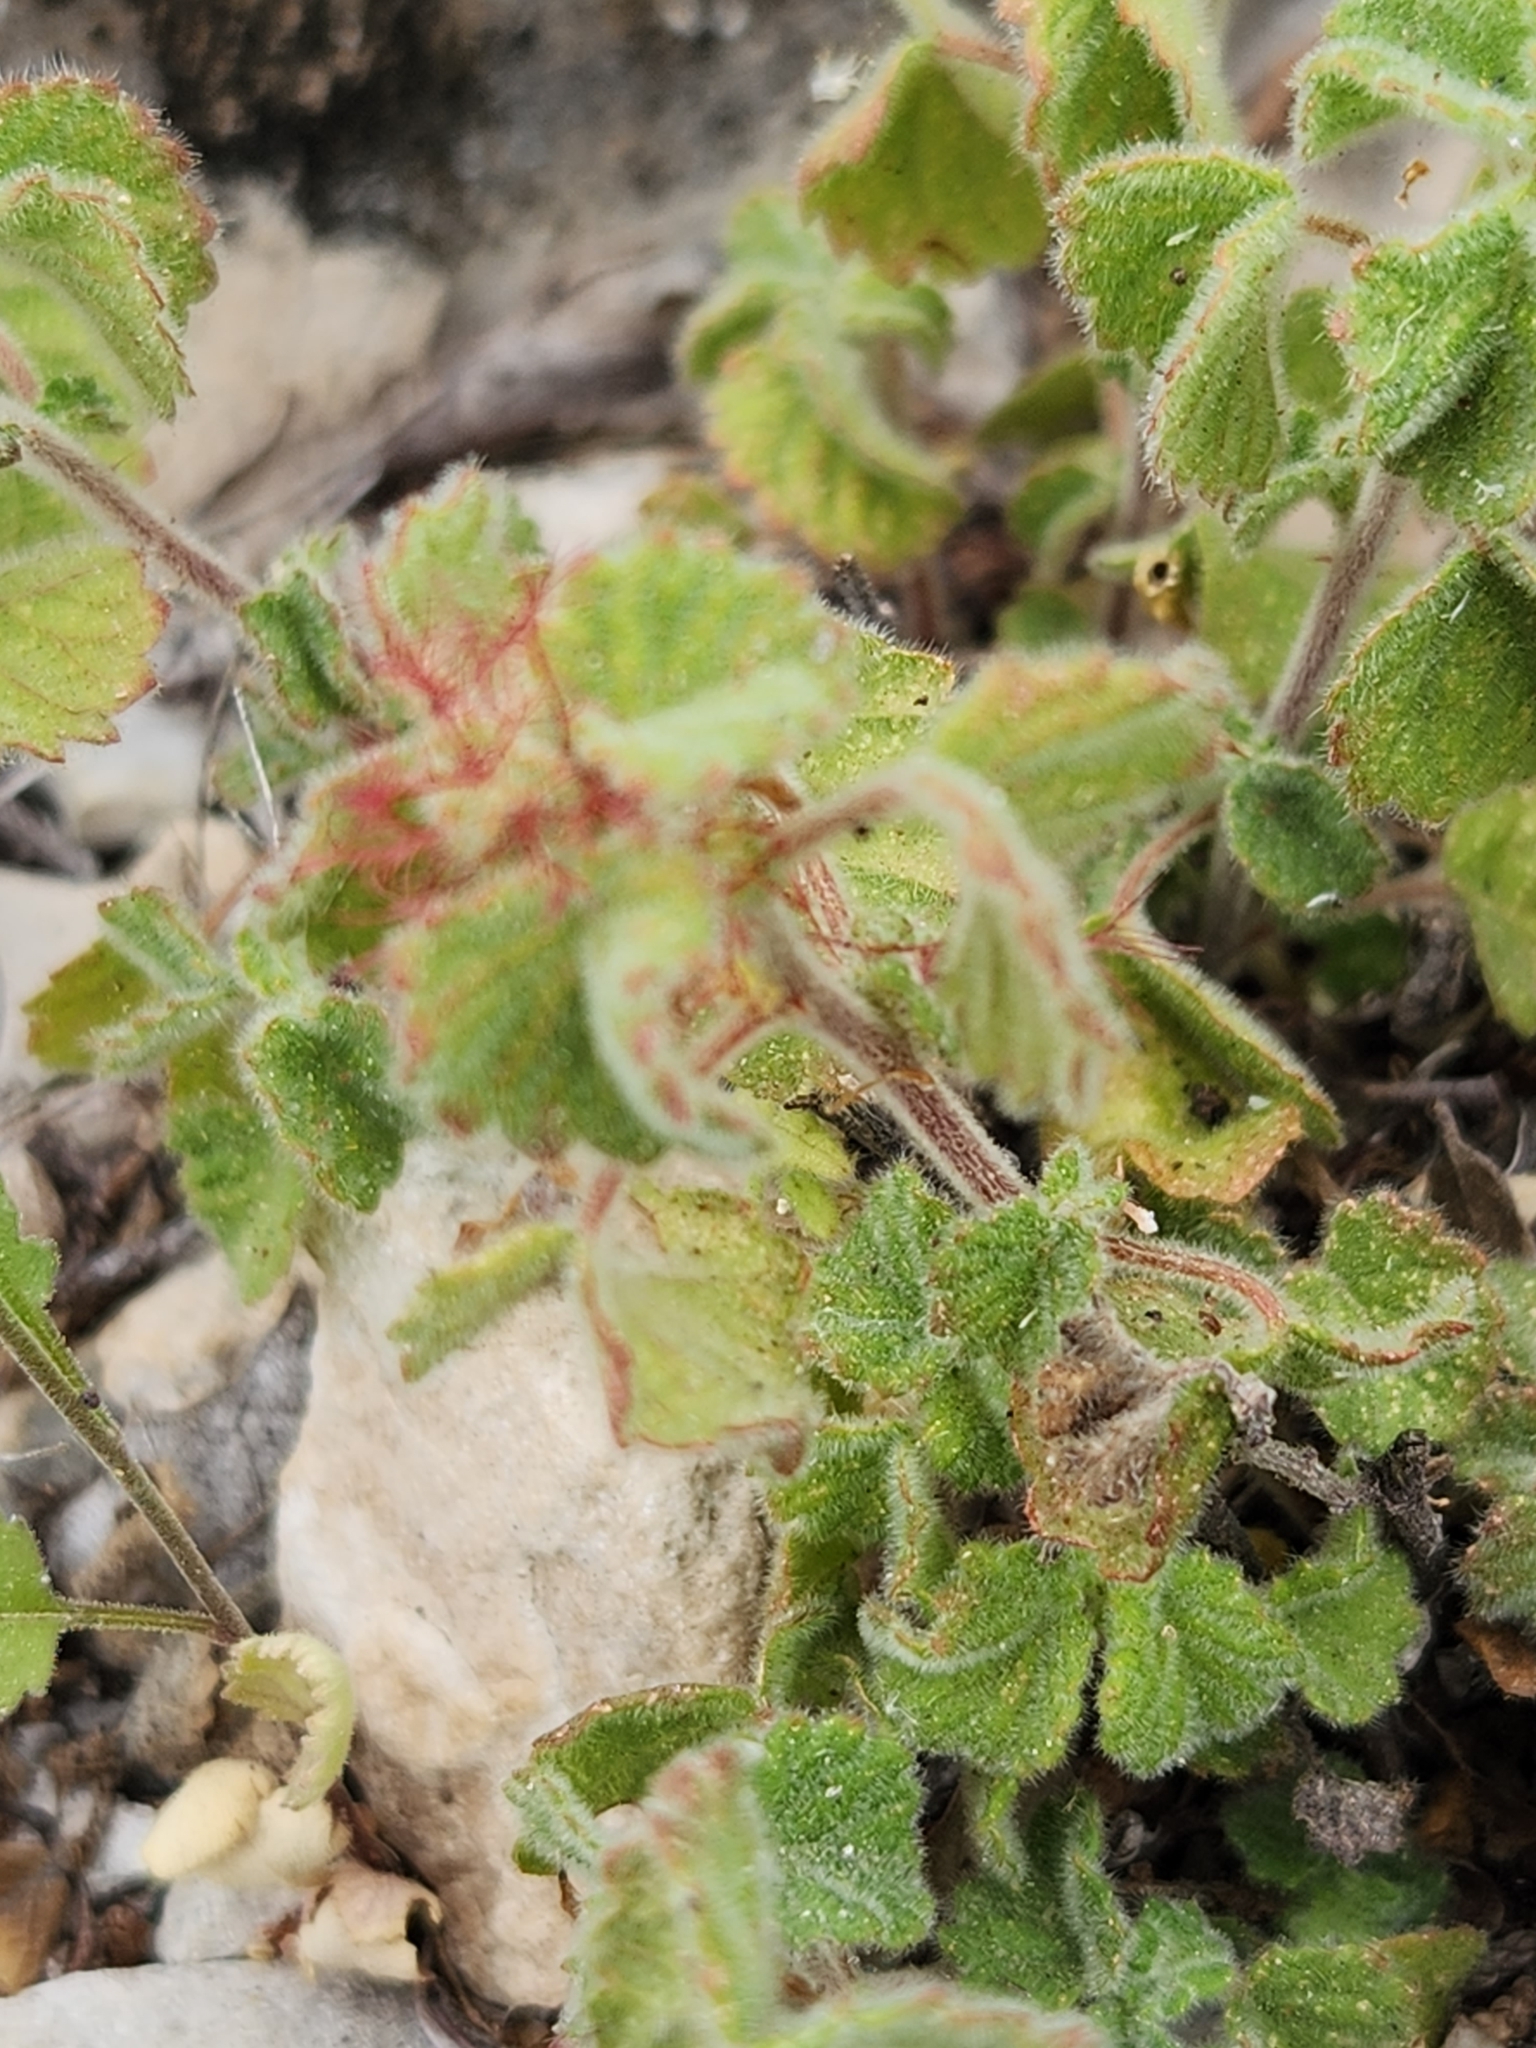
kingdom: Plantae
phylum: Tracheophyta
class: Magnoliopsida
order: Malpighiales
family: Euphorbiaceae
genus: Acalypha
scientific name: Acalypha monostachya
